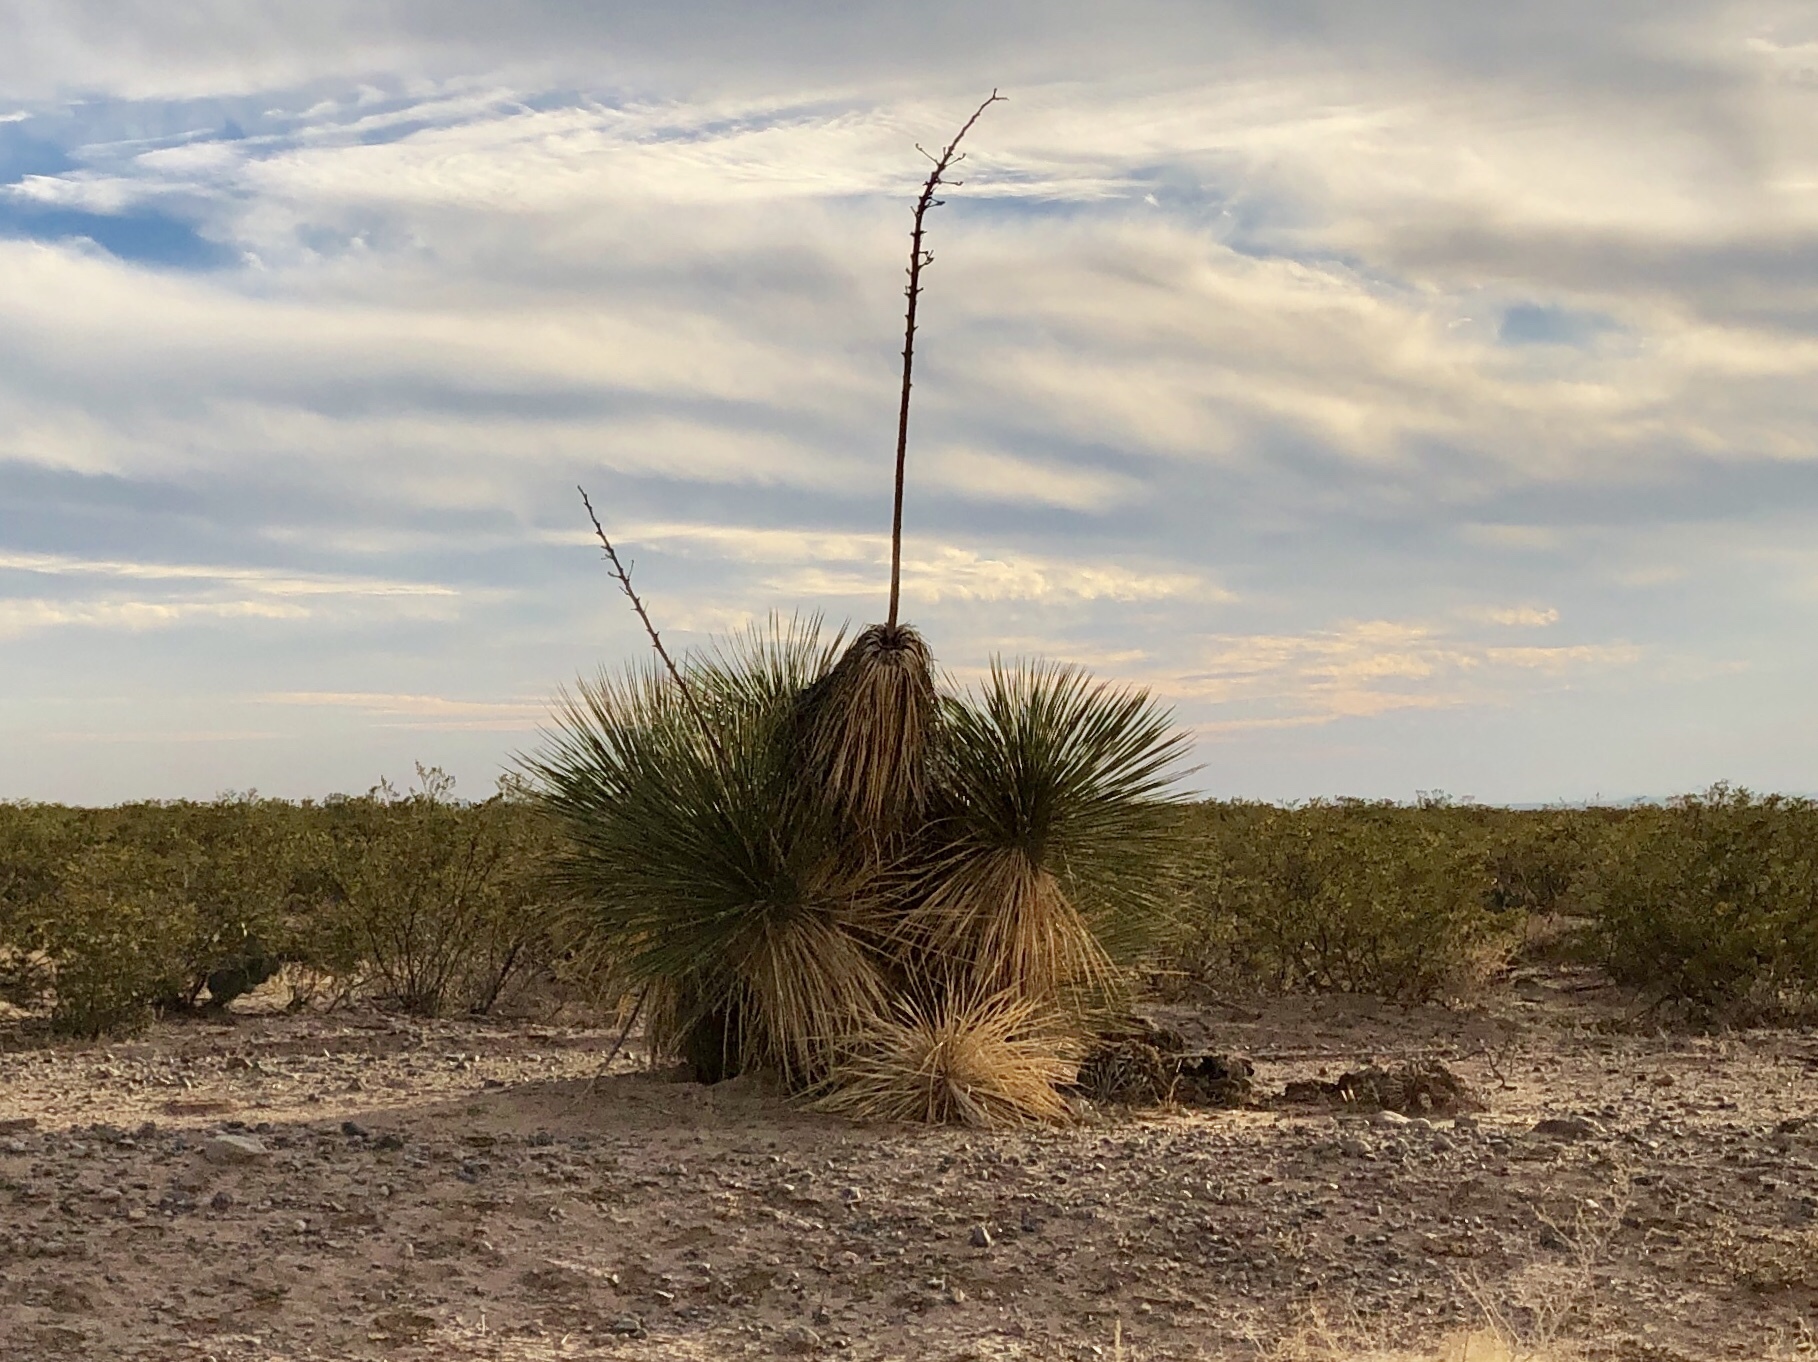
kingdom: Plantae
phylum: Tracheophyta
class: Liliopsida
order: Asparagales
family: Asparagaceae
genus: Yucca
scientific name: Yucca elata
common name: Palmella
